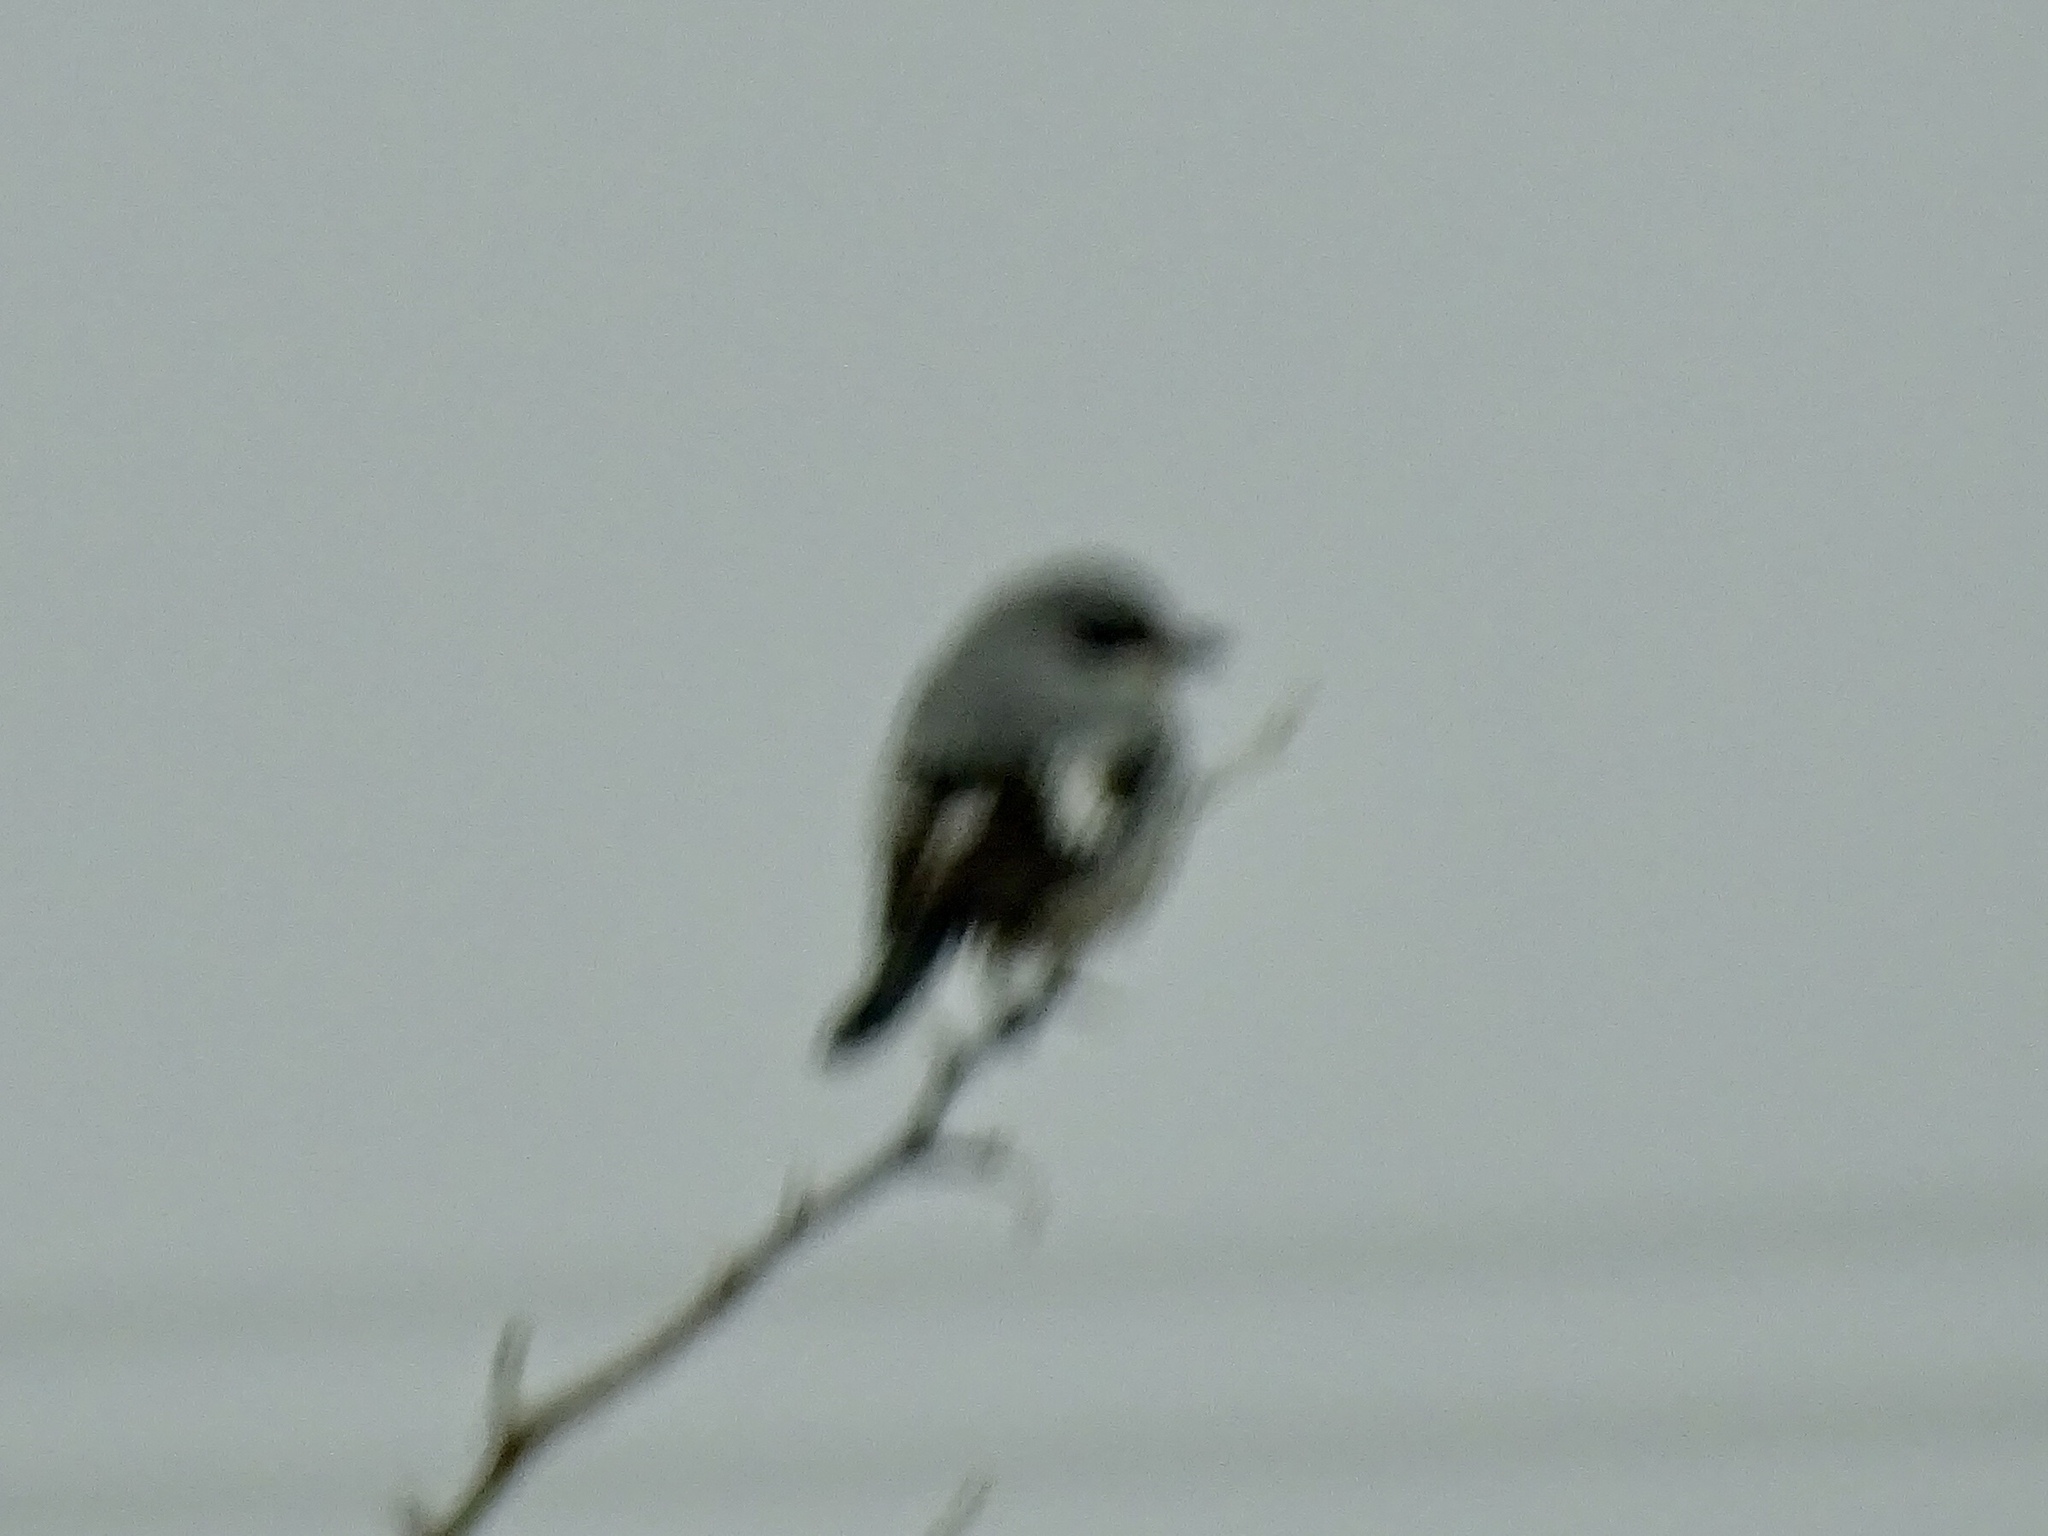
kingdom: Animalia
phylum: Chordata
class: Aves
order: Passeriformes
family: Laniidae
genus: Lanius
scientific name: Lanius ludovicianus
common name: Loggerhead shrike
